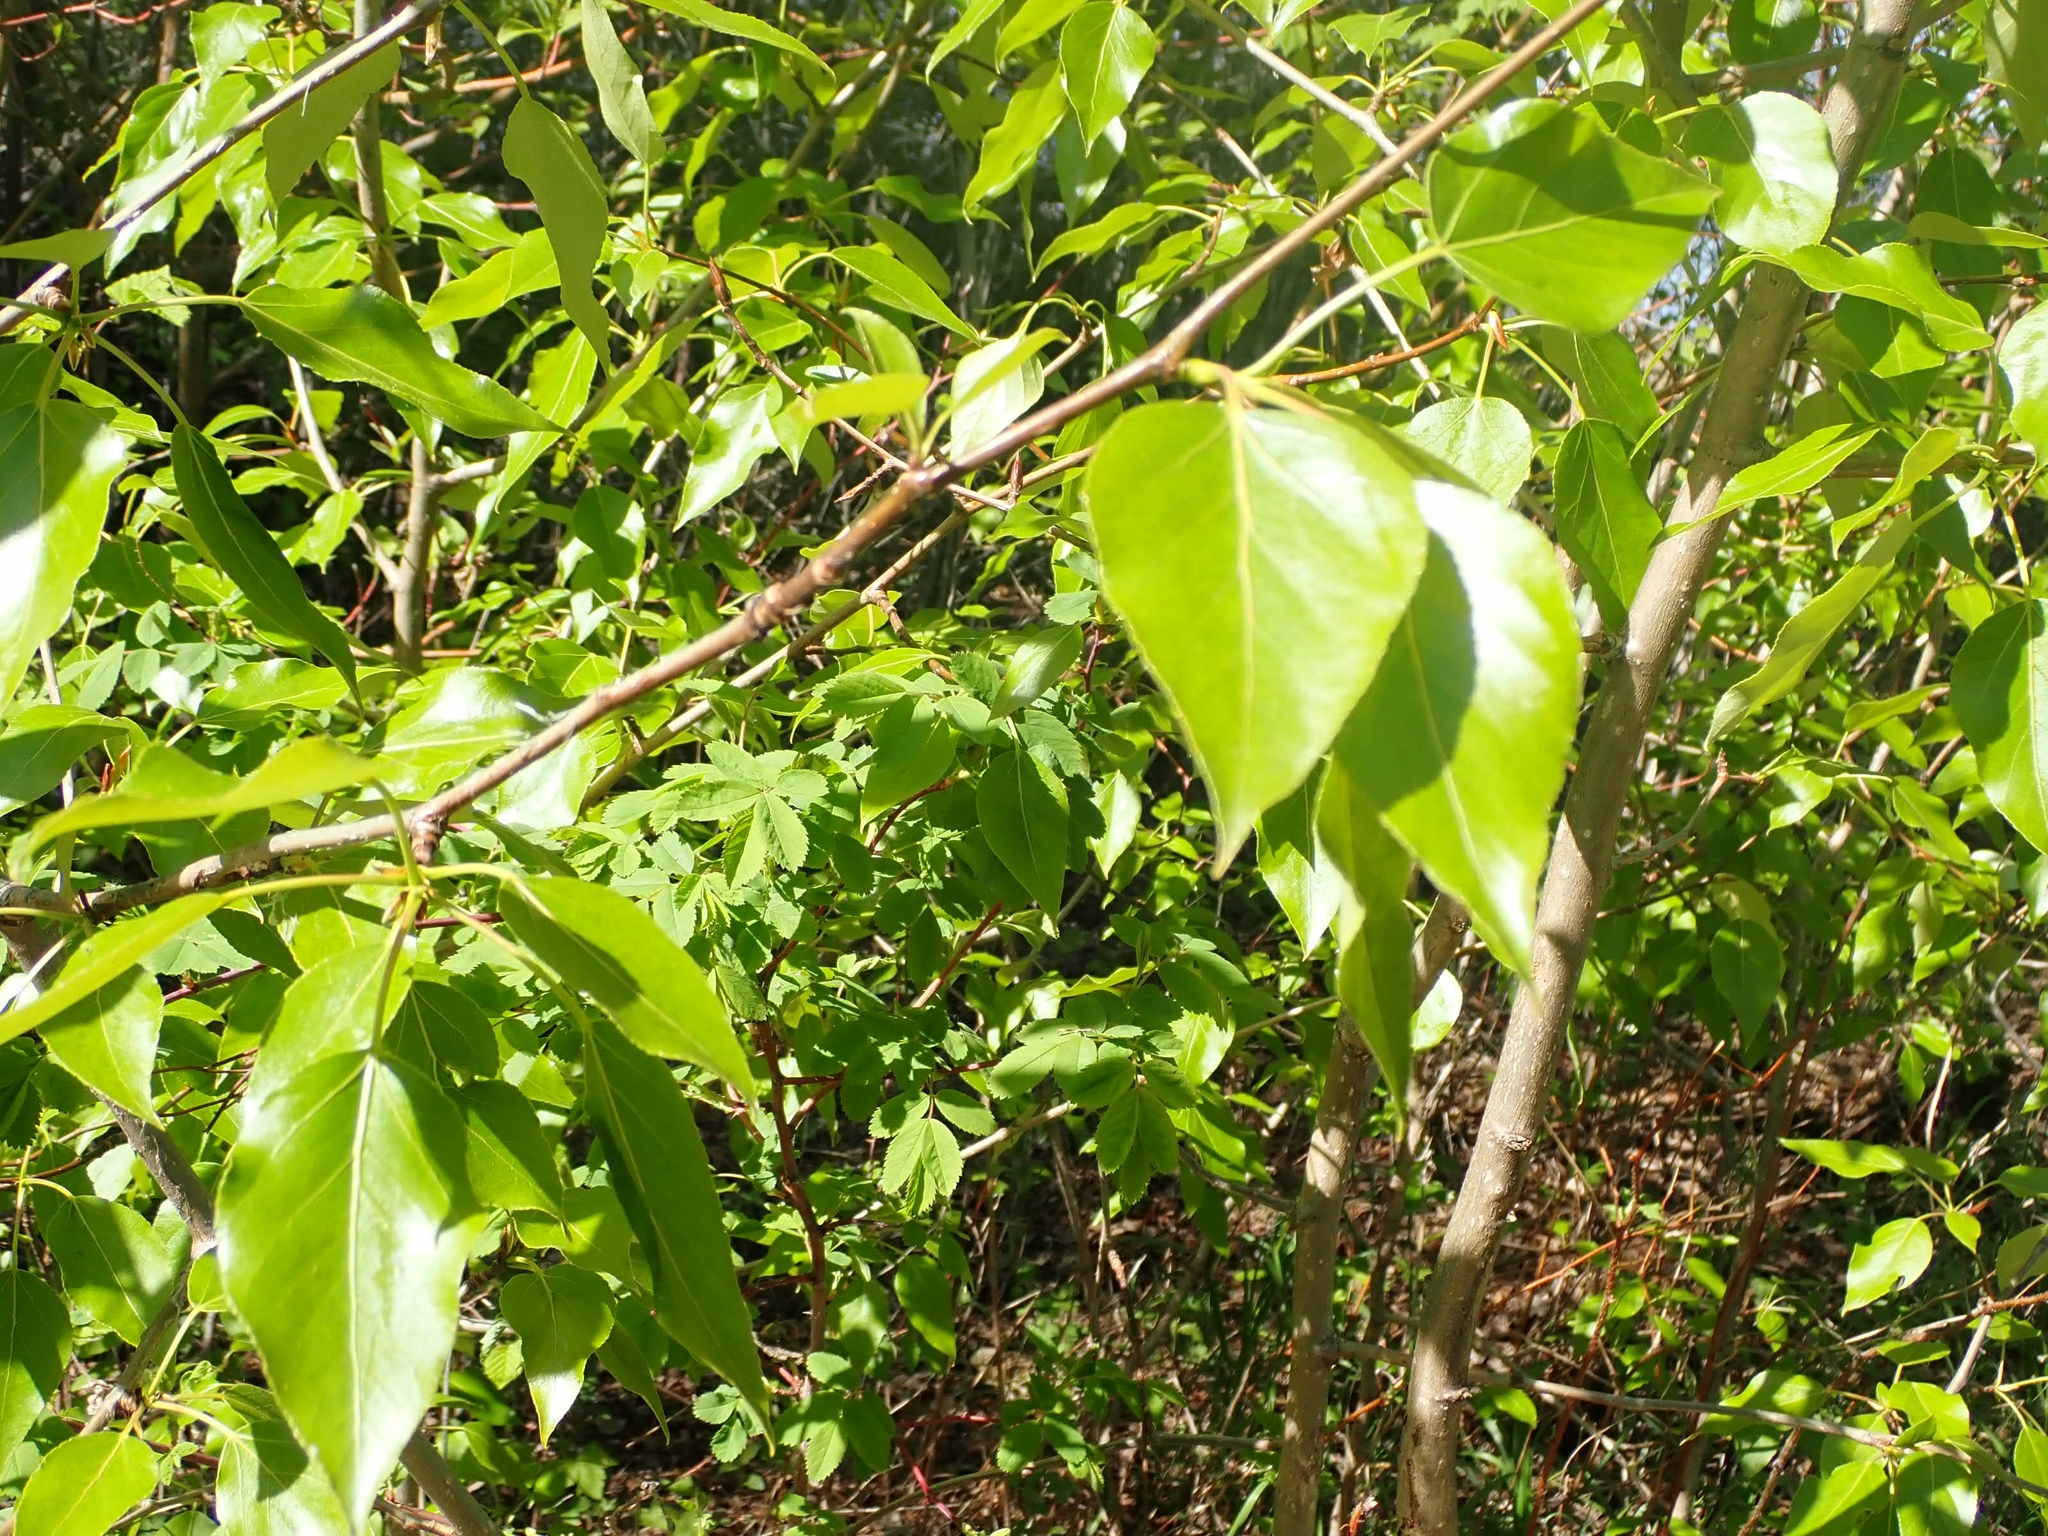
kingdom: Plantae
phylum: Tracheophyta
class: Magnoliopsida
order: Malpighiales
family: Salicaceae
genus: Populus
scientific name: Populus balsamifera
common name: Balsam poplar
